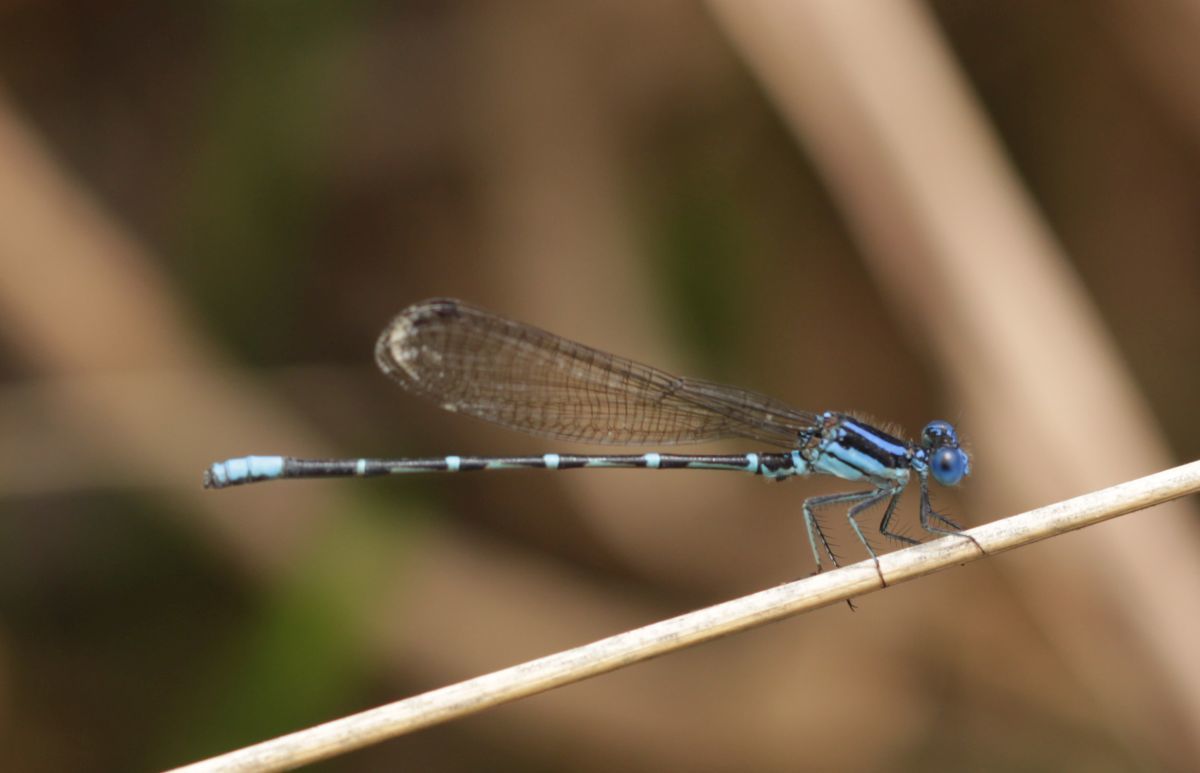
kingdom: Animalia
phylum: Arthropoda
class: Insecta
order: Odonata
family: Coenagrionidae
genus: Argia
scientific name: Argia sedula
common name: Blue-ringed dancer
